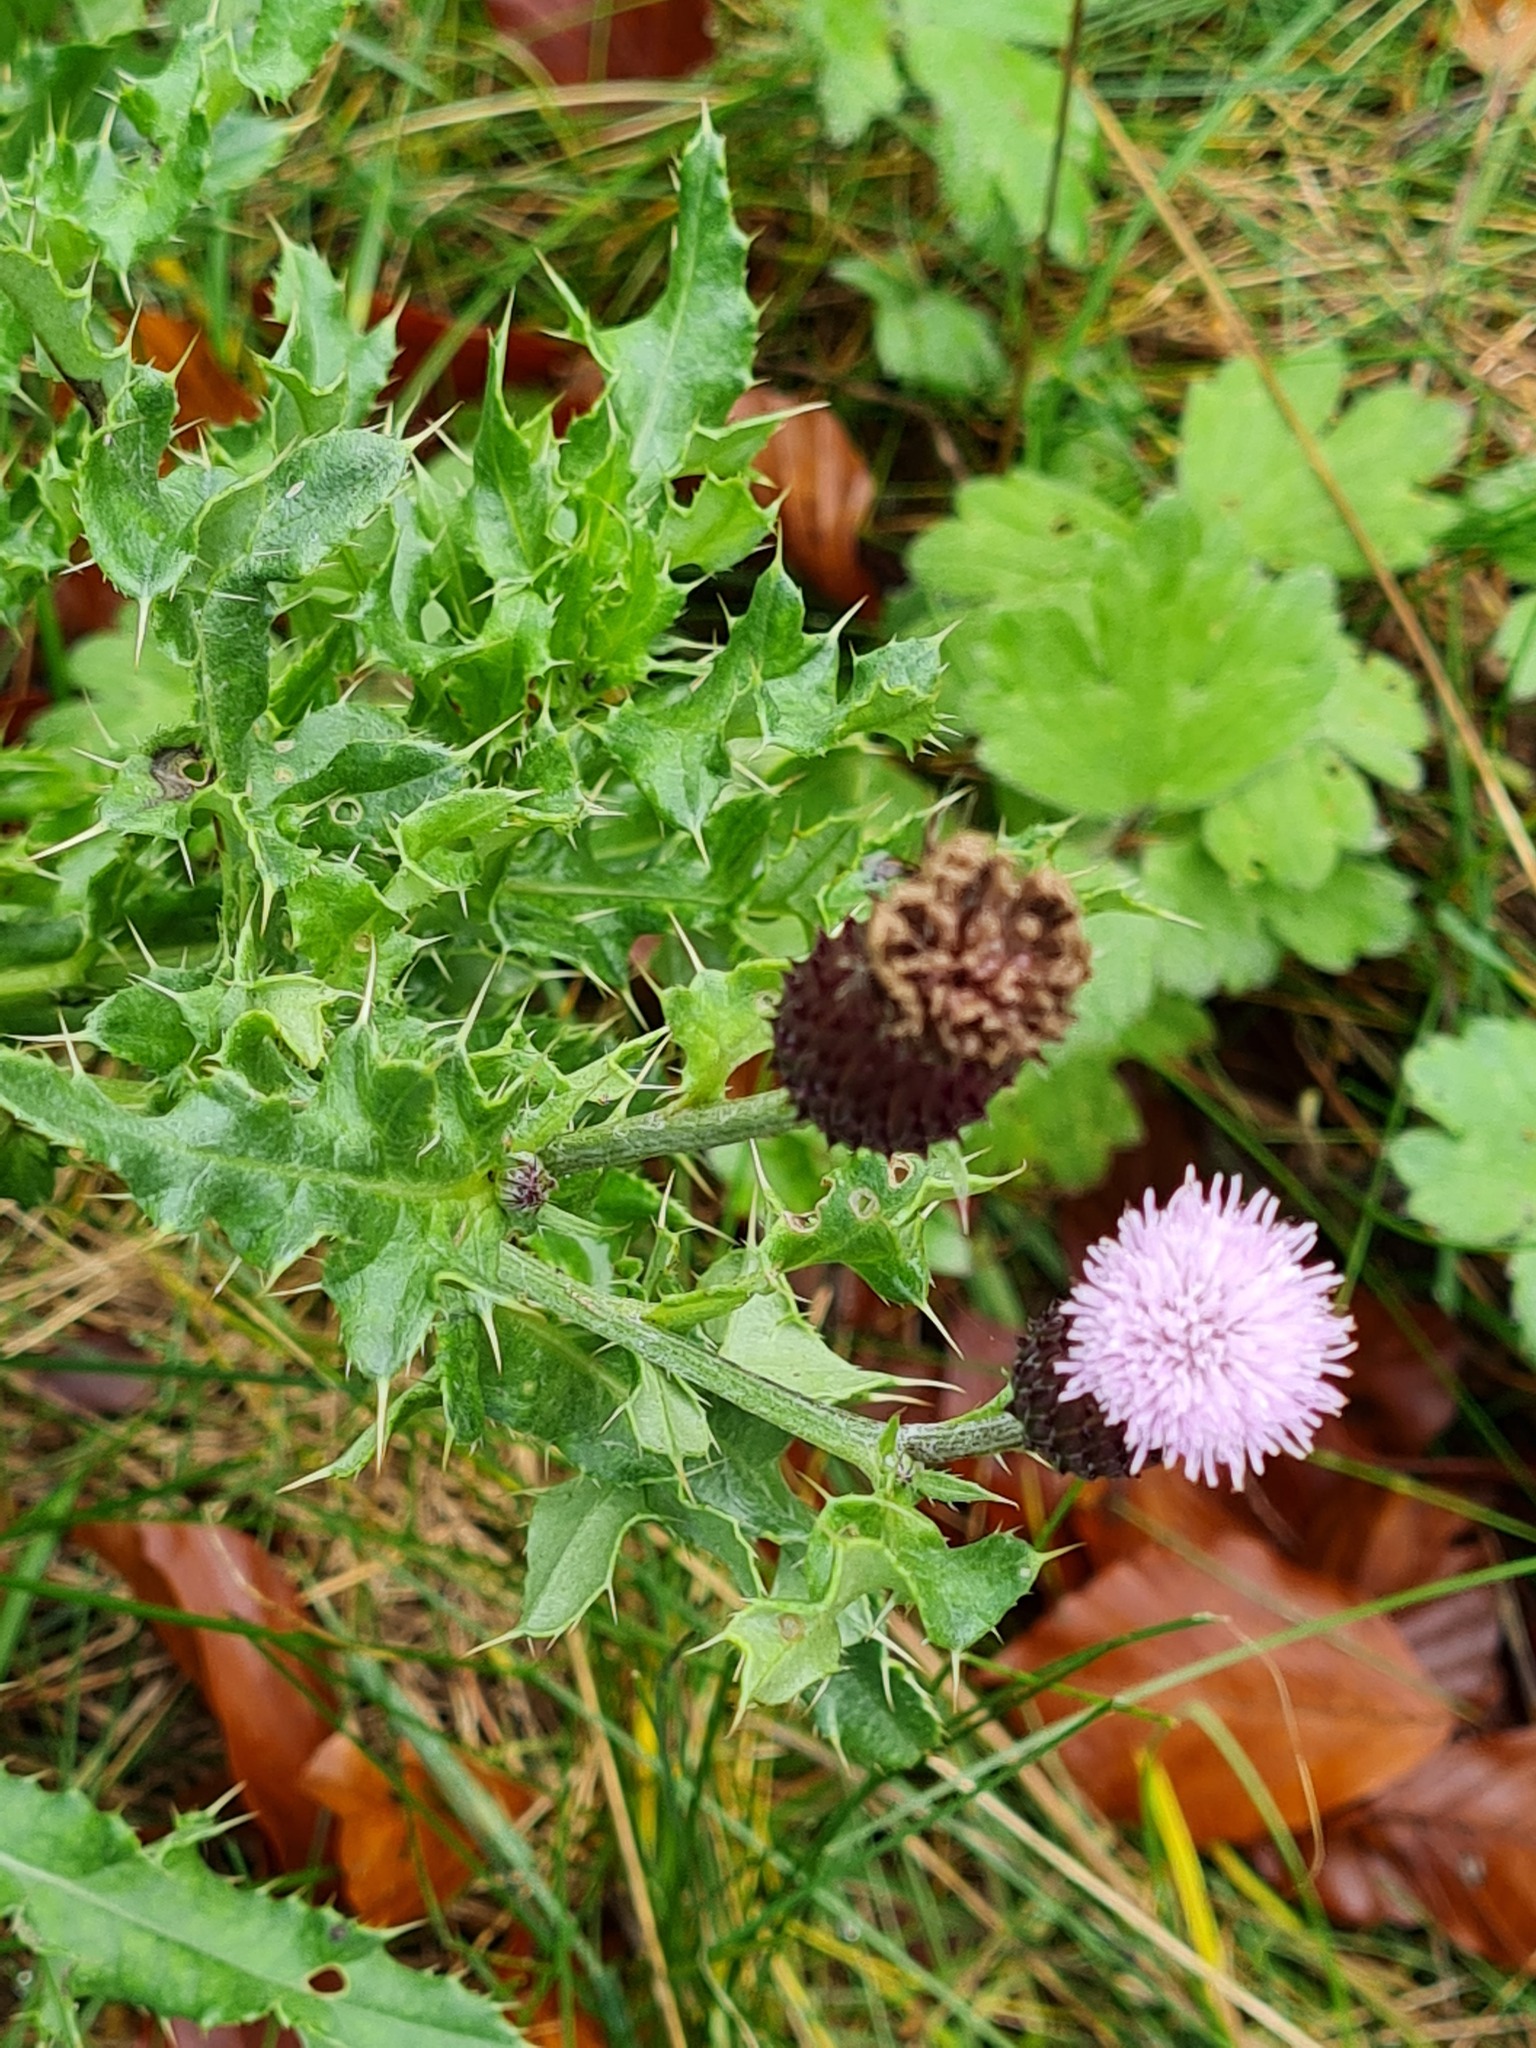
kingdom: Plantae
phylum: Tracheophyta
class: Magnoliopsida
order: Asterales
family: Asteraceae
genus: Cirsium
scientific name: Cirsium arvense
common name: Creeping thistle
